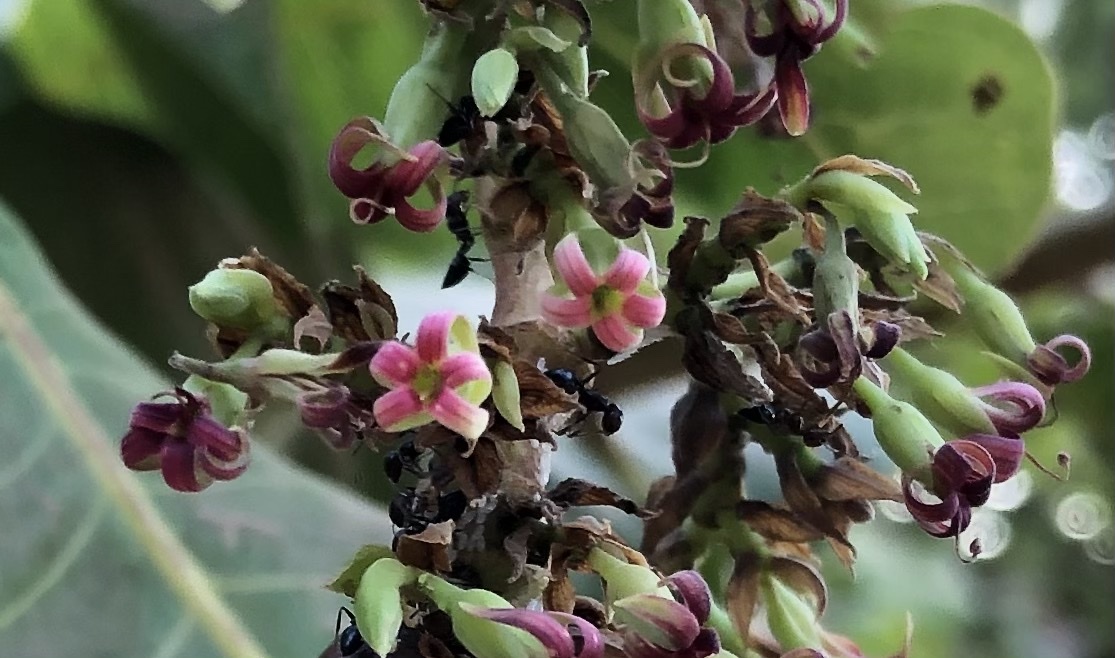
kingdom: Plantae
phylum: Tracheophyta
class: Magnoliopsida
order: Sapindales
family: Anacardiaceae
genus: Anacardium
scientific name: Anacardium occidentale
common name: Cashew
